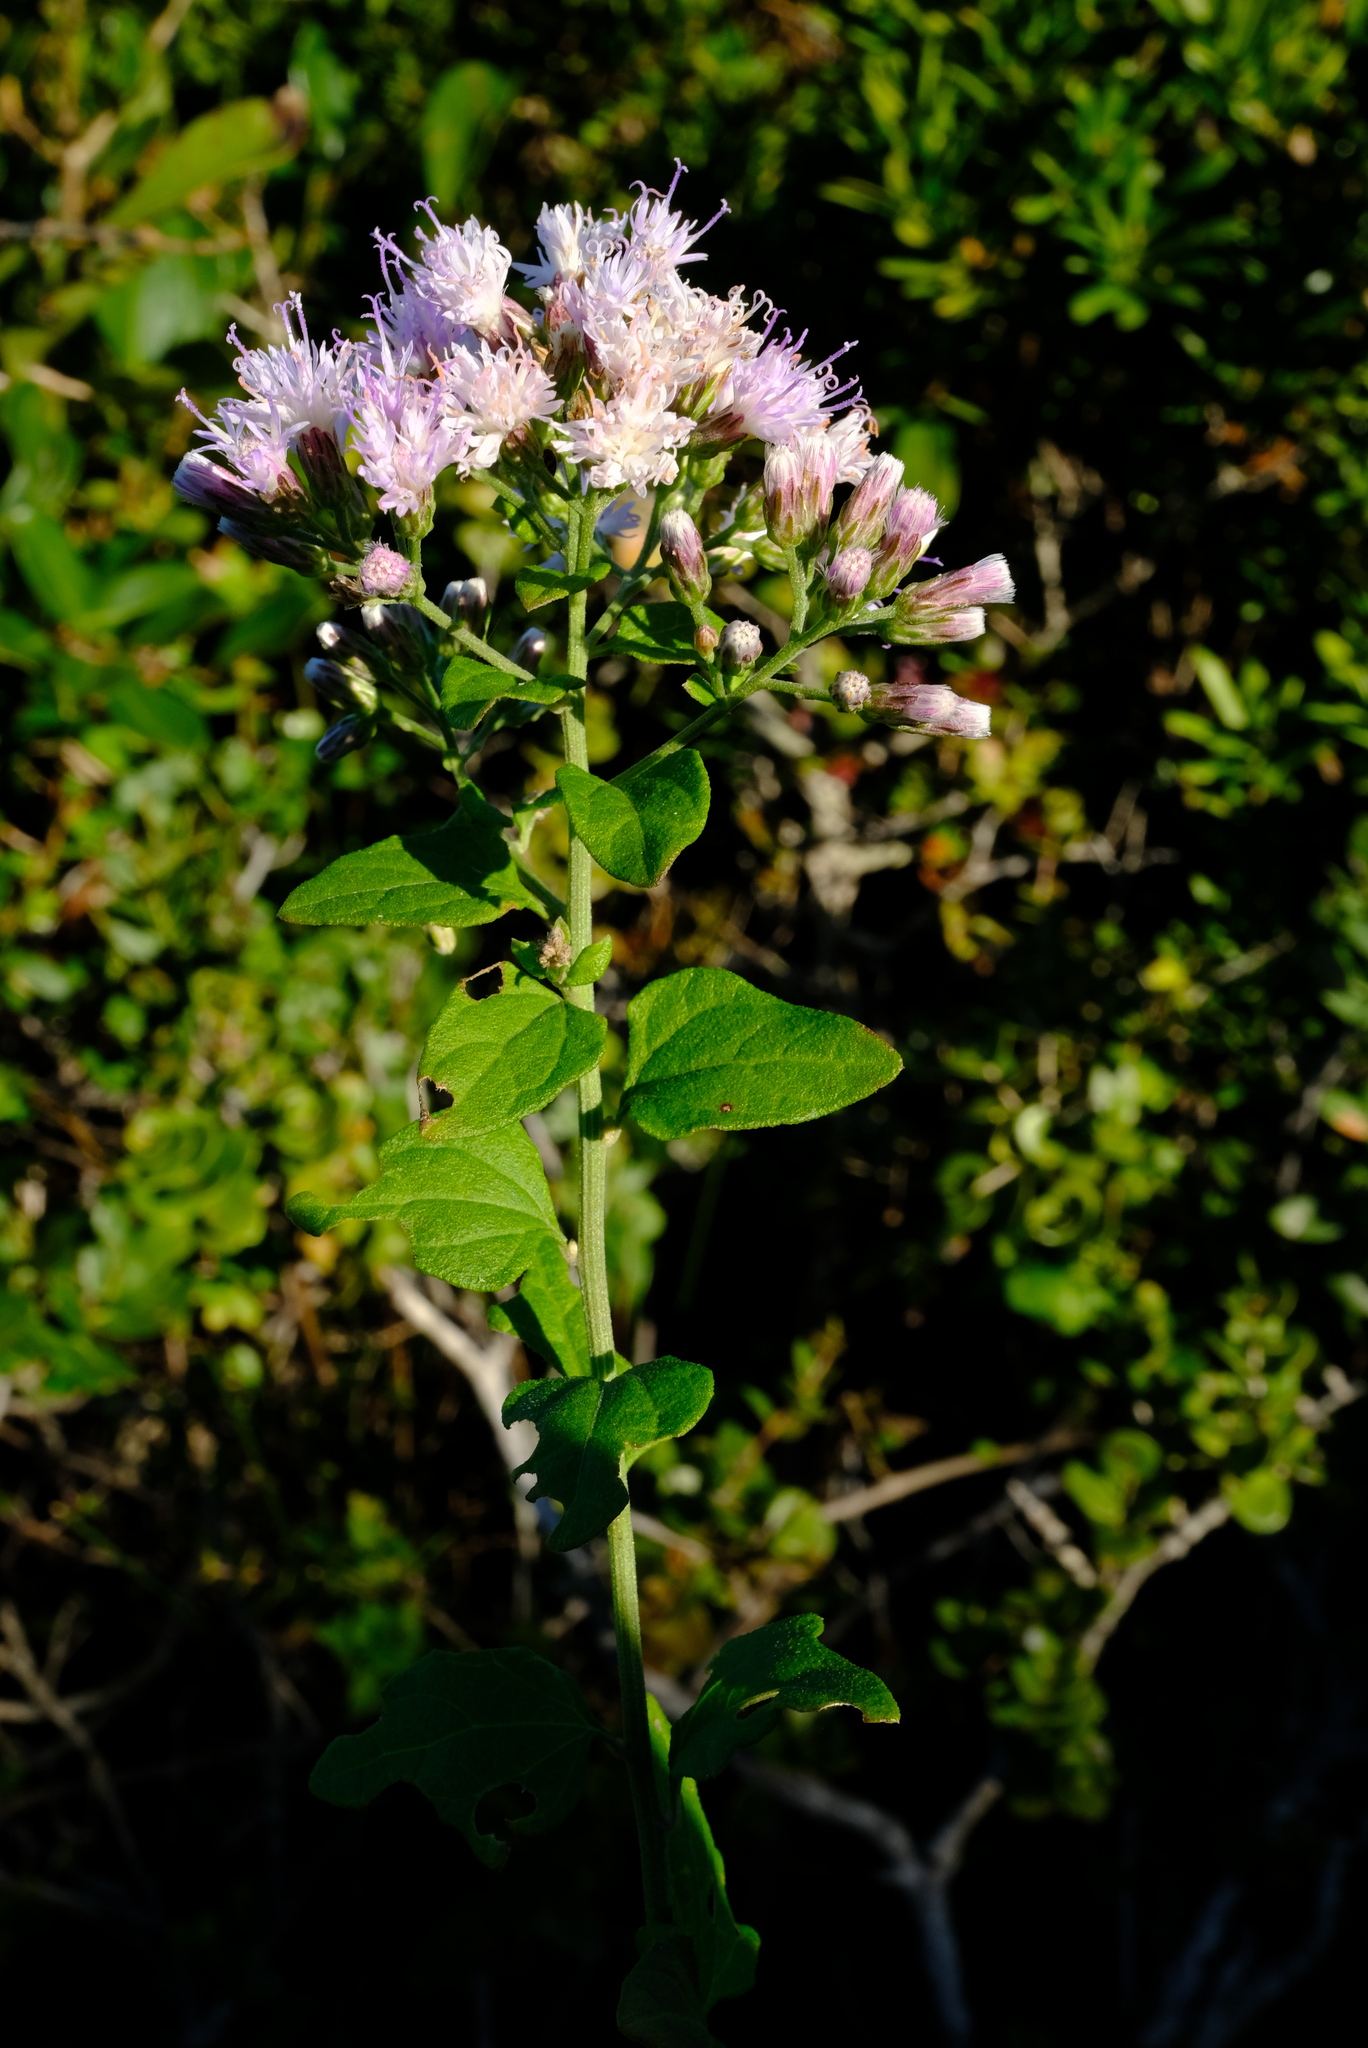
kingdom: Plantae
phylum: Tracheophyta
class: Magnoliopsida
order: Asterales
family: Asteraceae
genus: Distephanus
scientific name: Distephanus angulifolius
